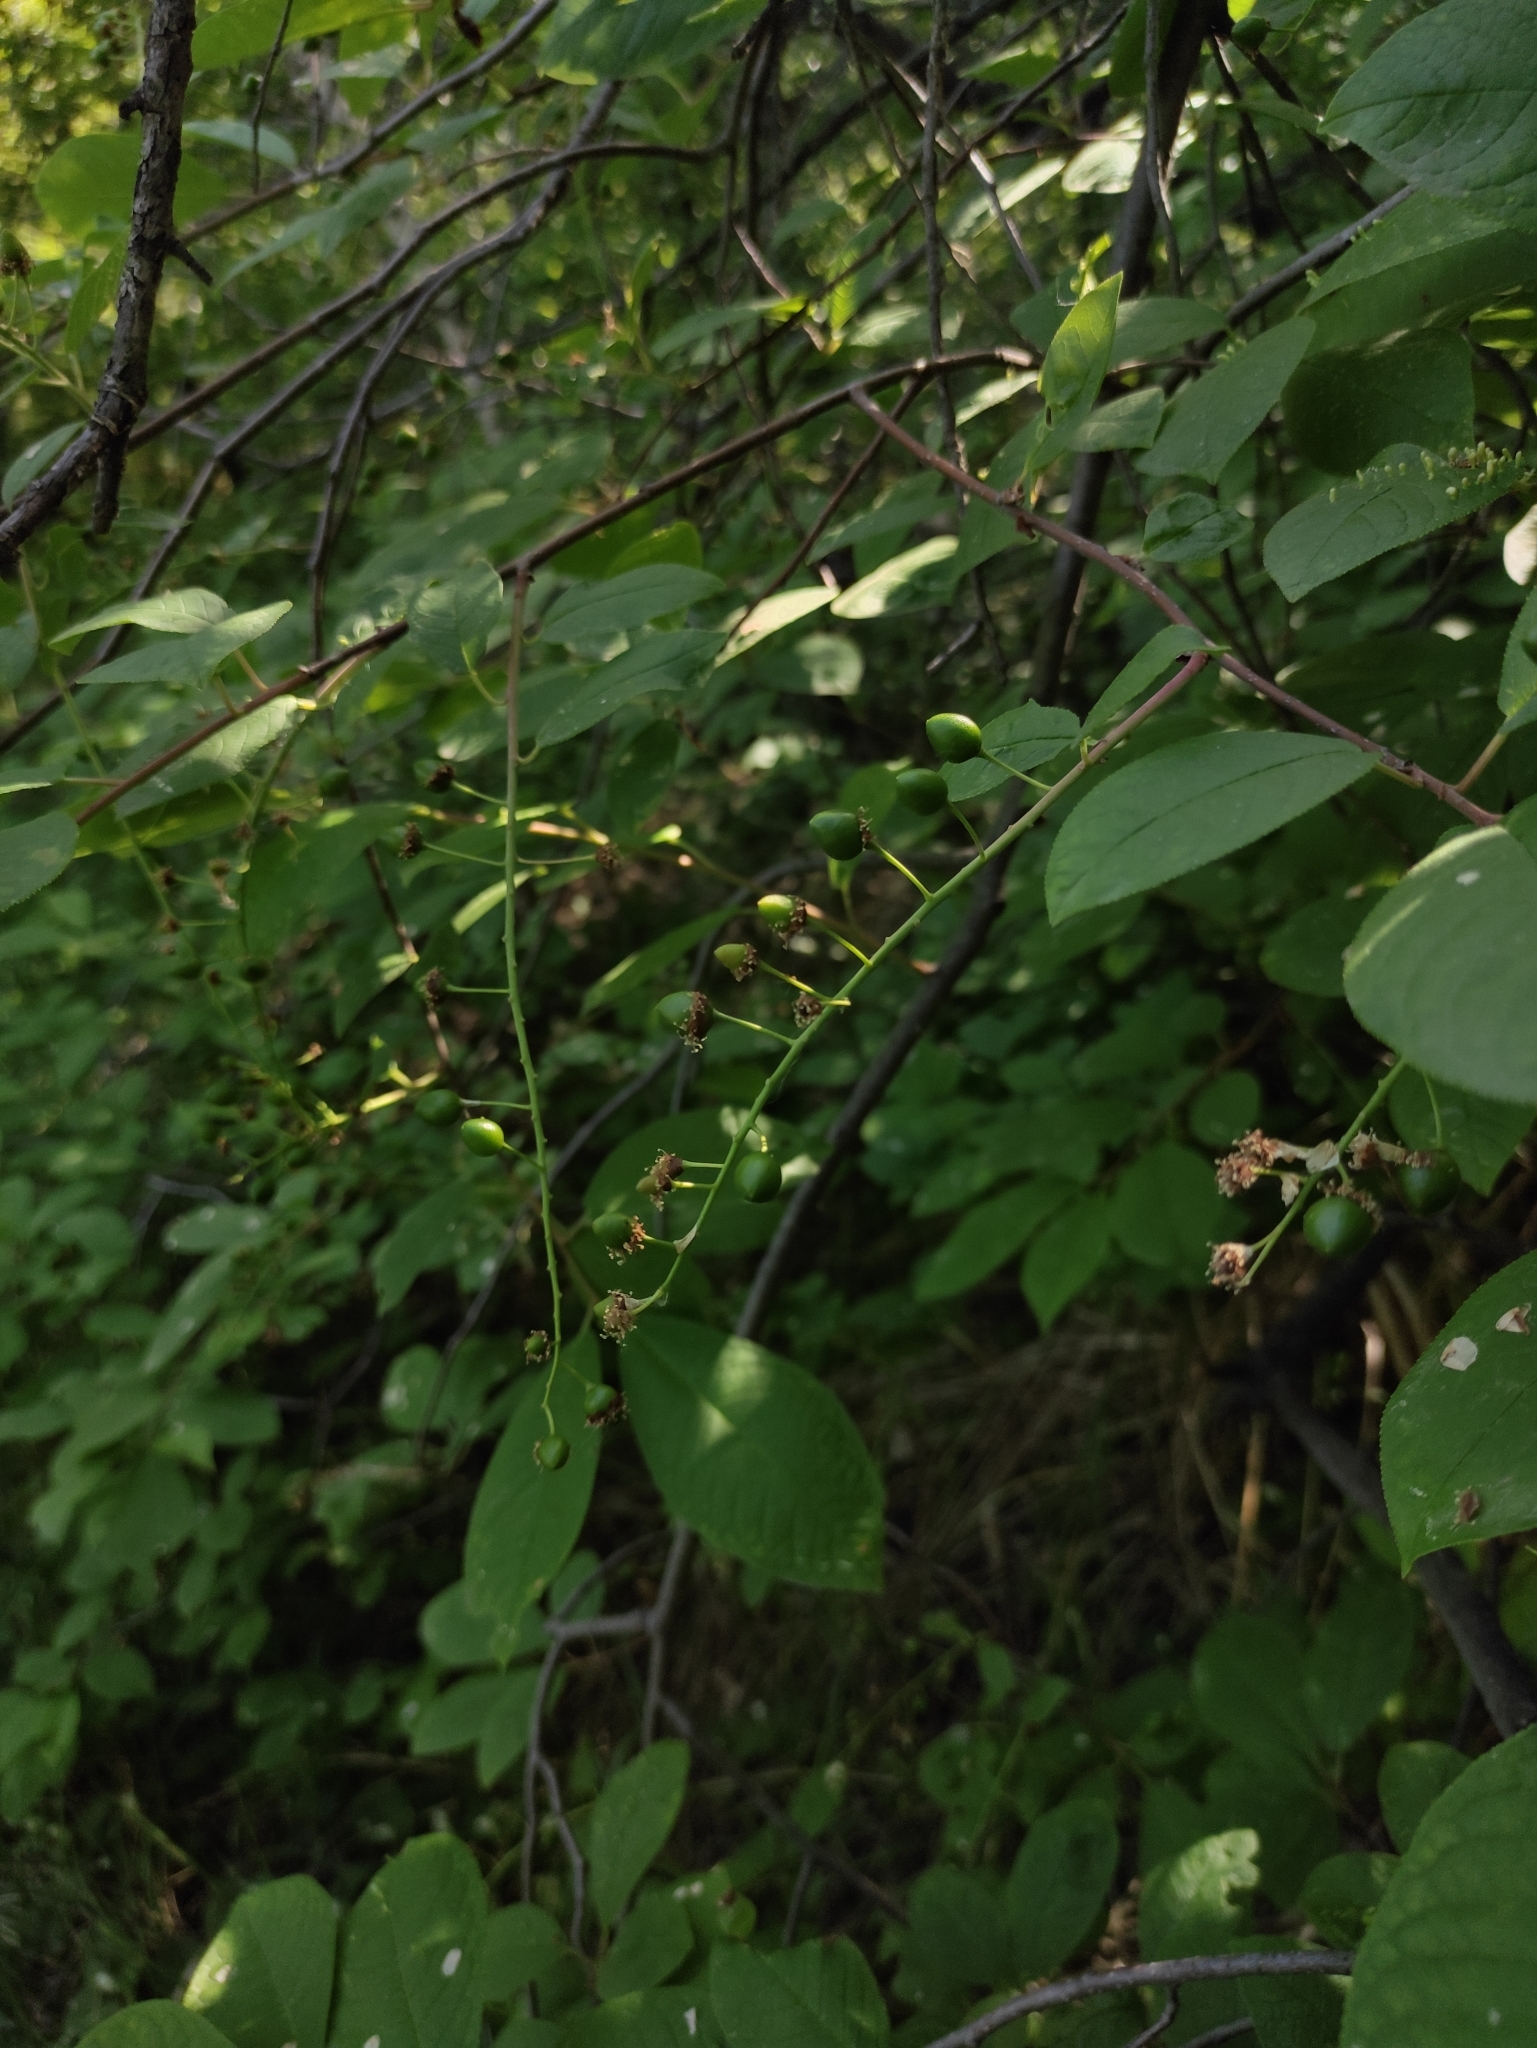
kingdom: Plantae
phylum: Tracheophyta
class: Magnoliopsida
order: Rosales
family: Rosaceae
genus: Prunus
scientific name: Prunus padus
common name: Bird cherry
